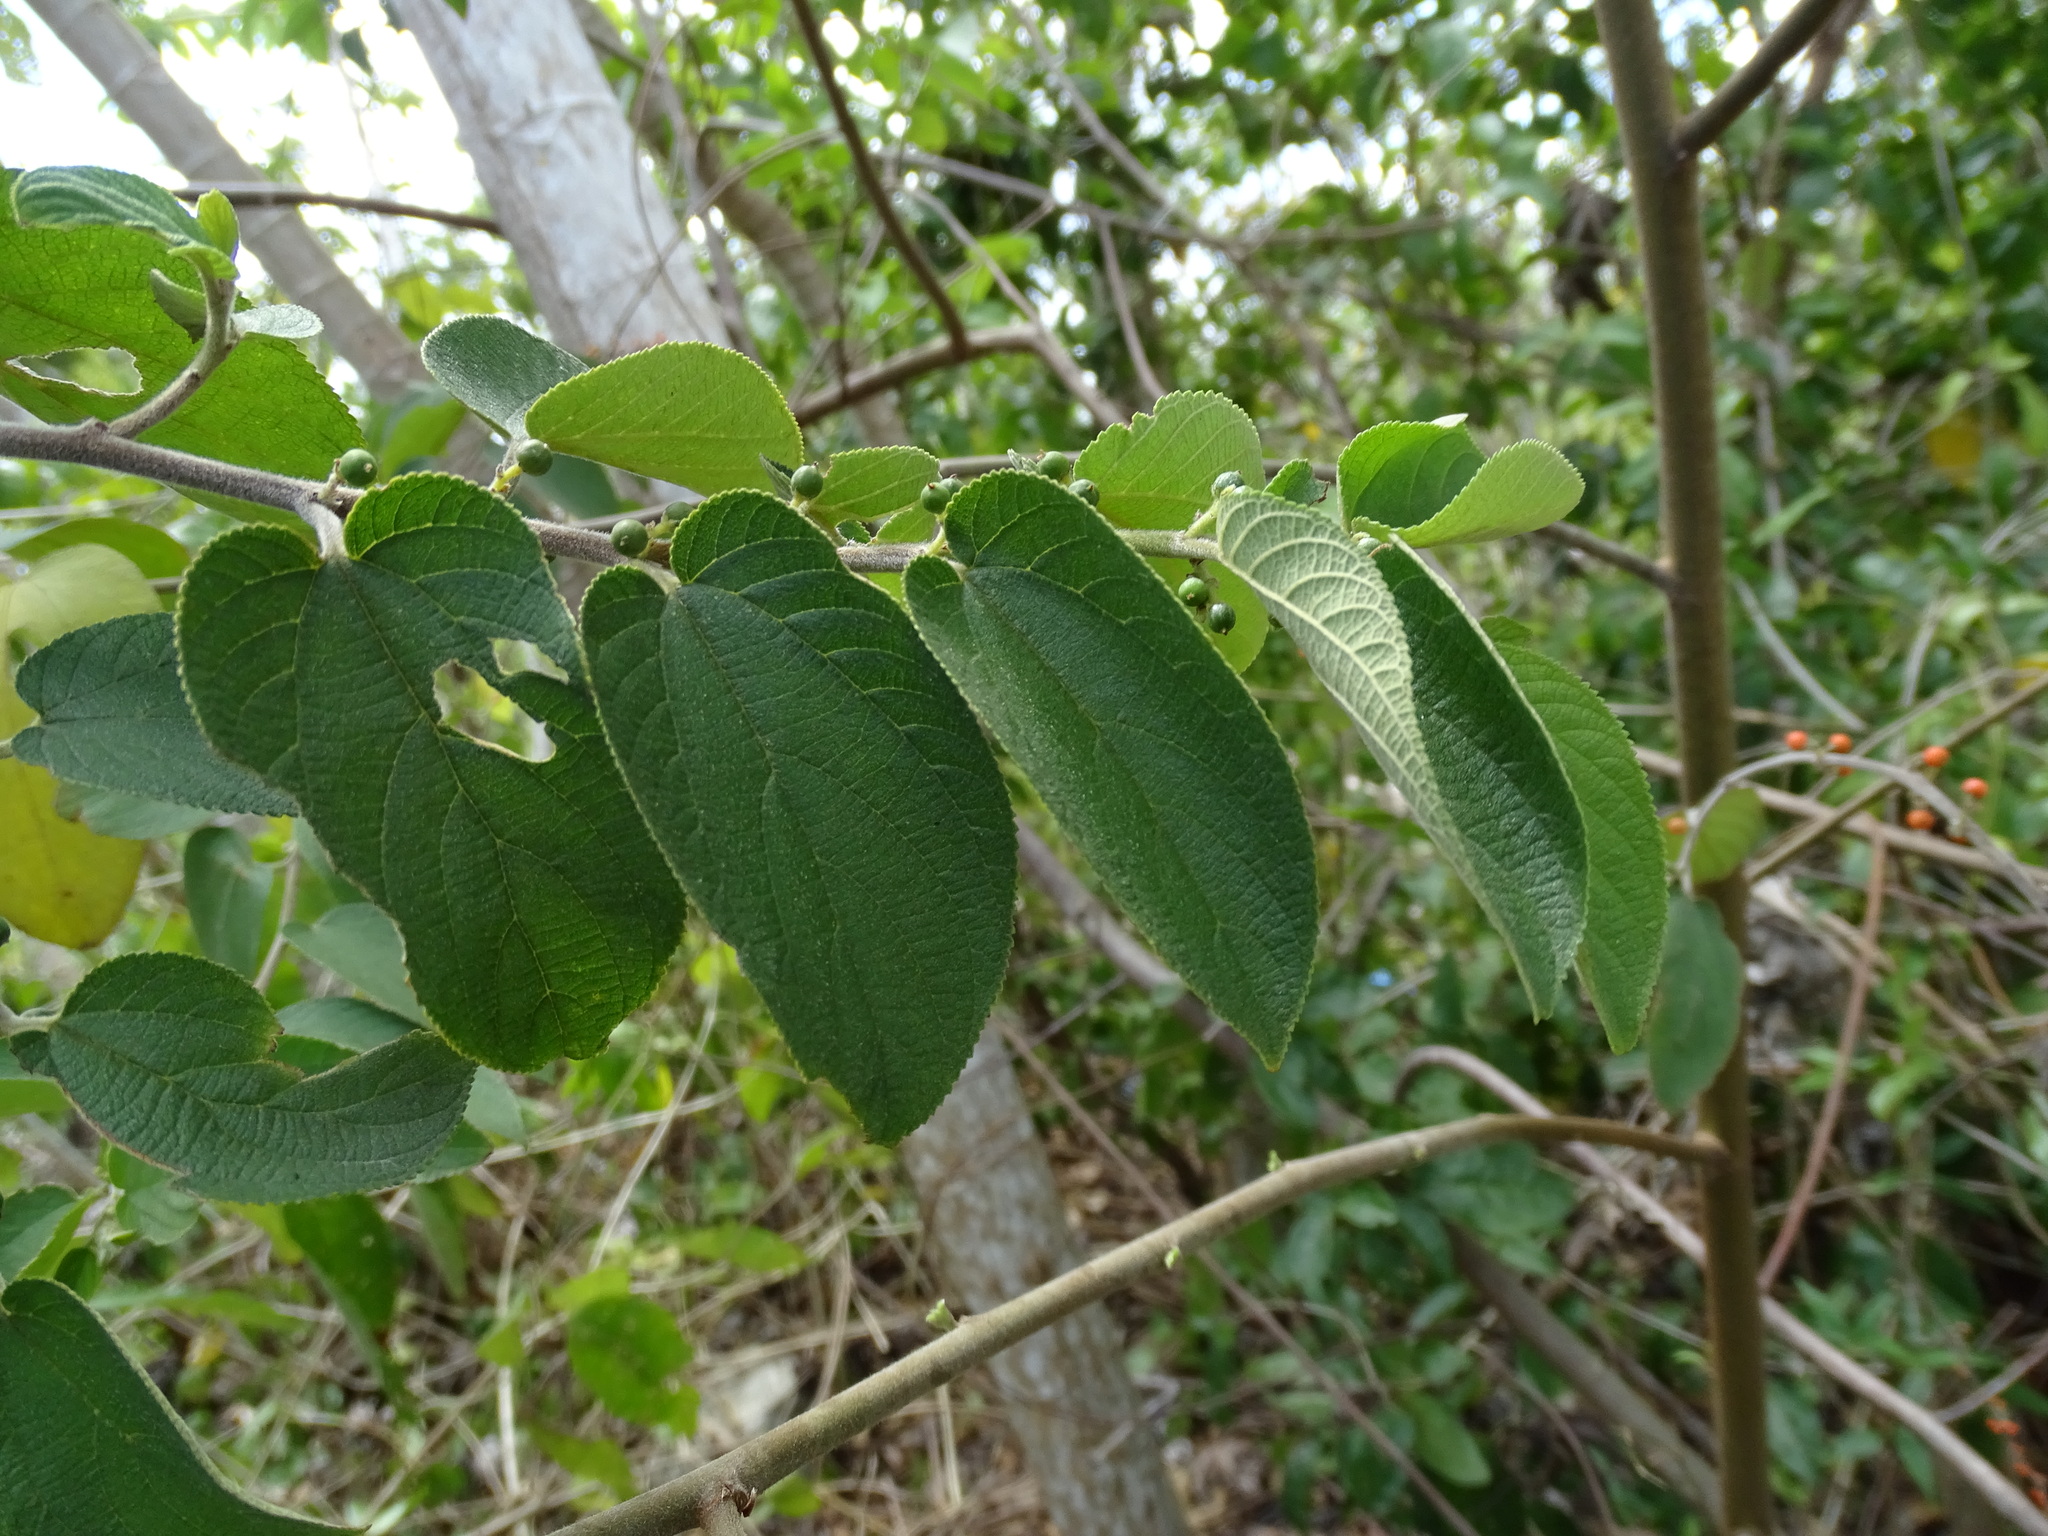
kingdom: Plantae
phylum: Tracheophyta
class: Magnoliopsida
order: Rosales
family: Cannabaceae
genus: Trema
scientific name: Trema micranthum
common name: Jamaican nettletree
